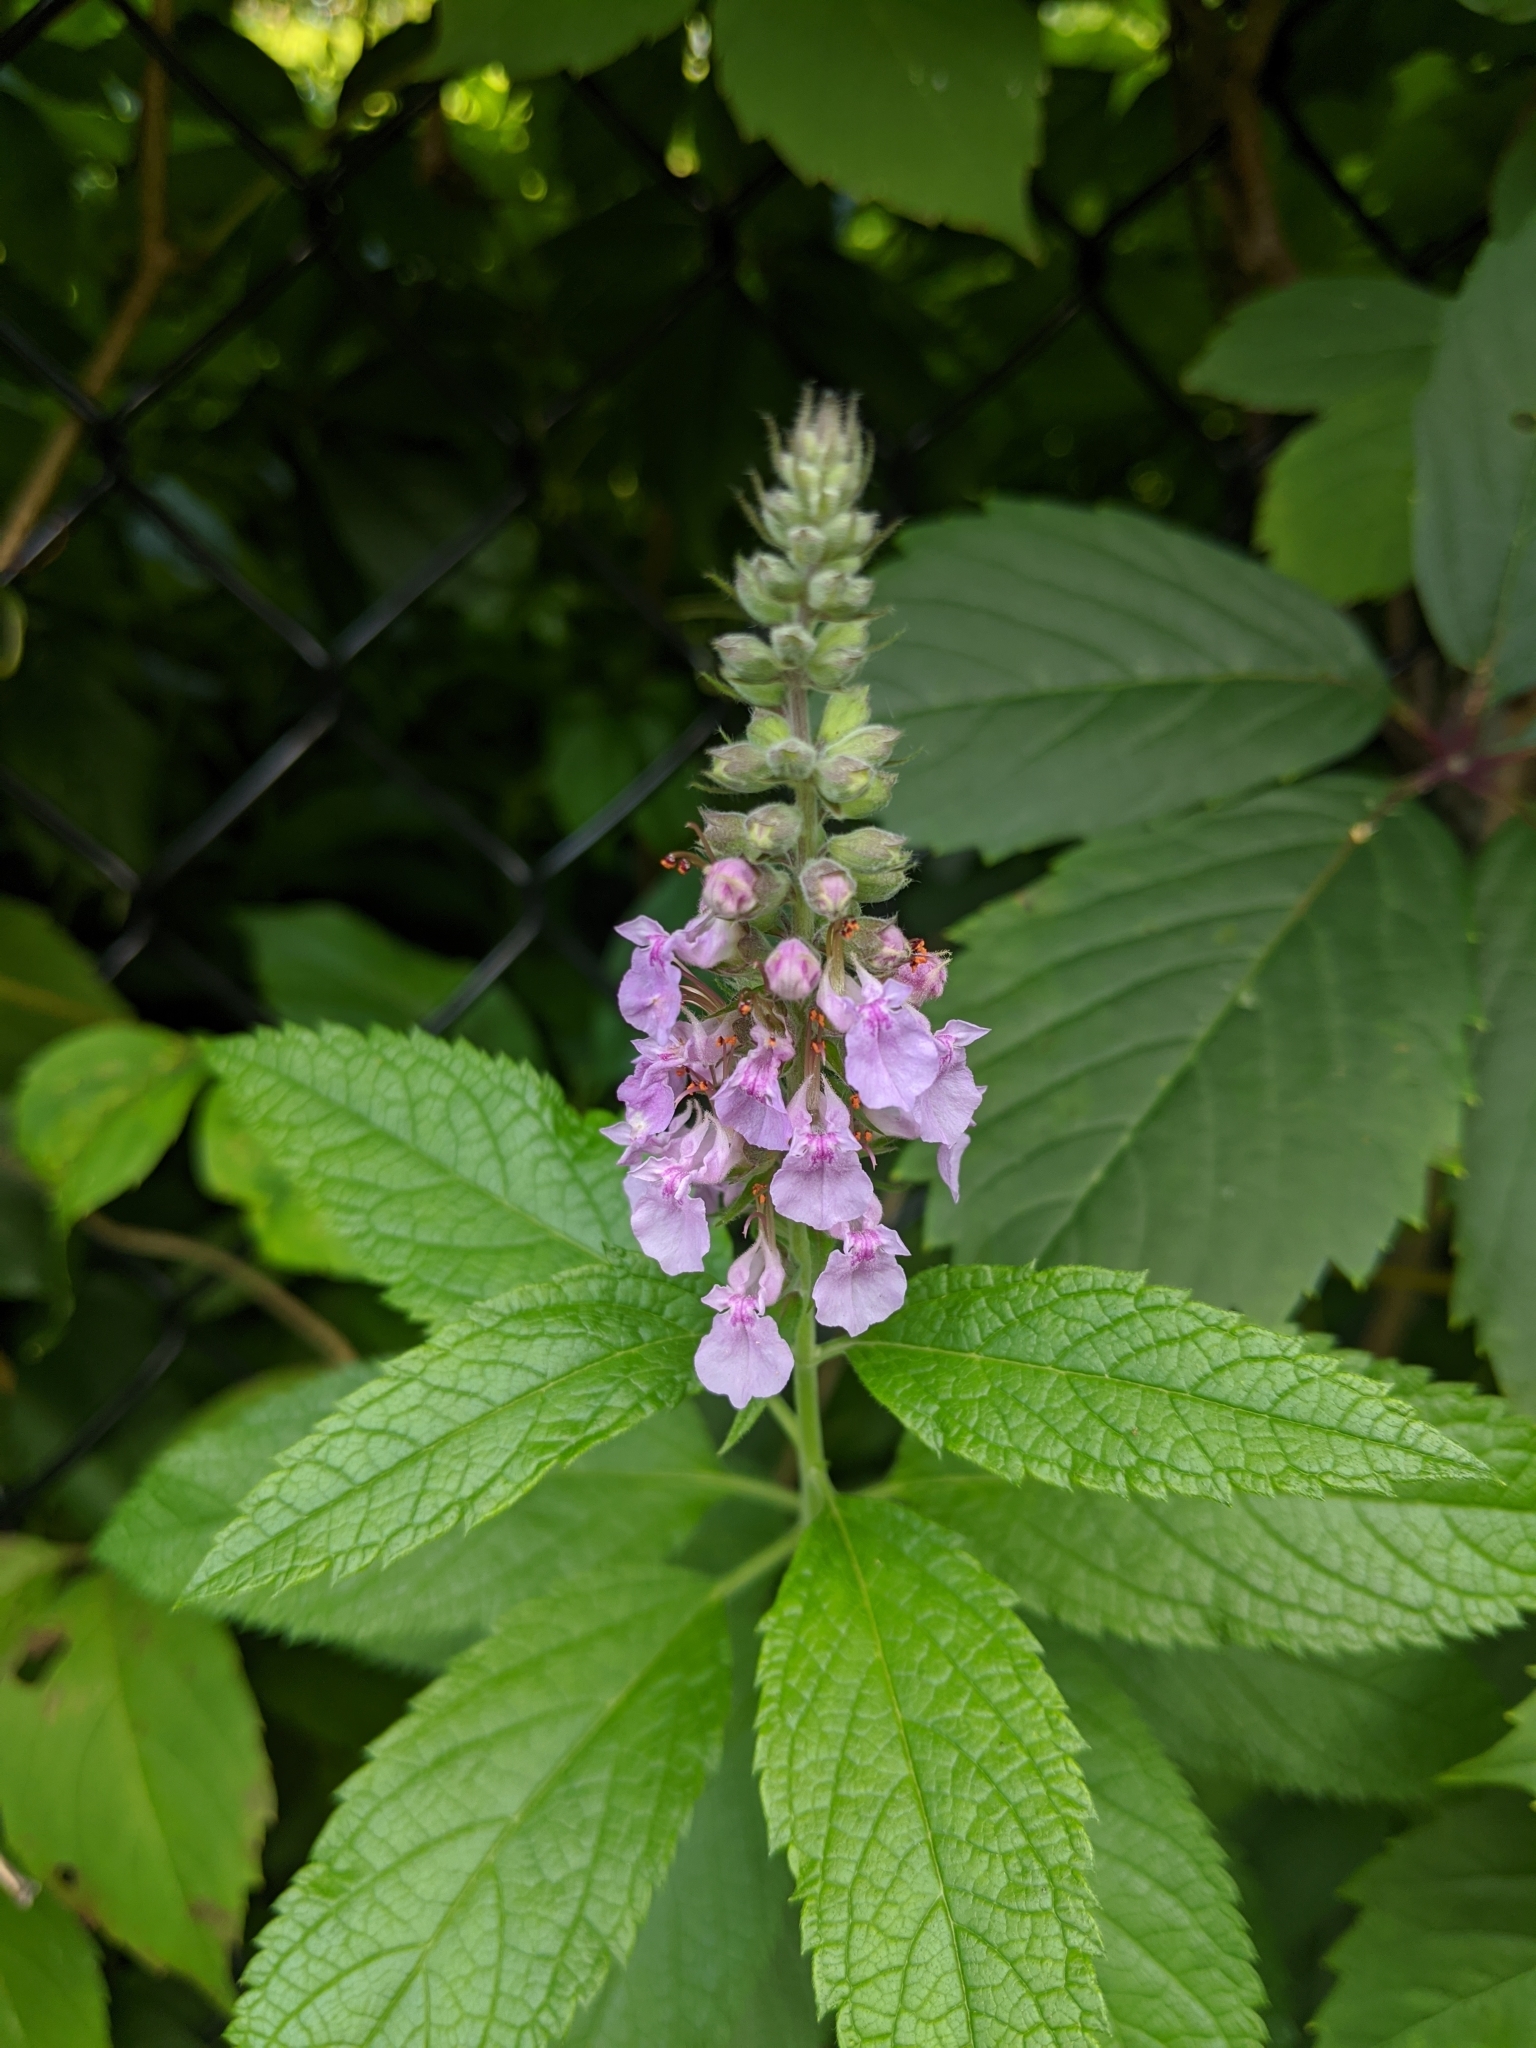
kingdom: Plantae
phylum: Tracheophyta
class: Magnoliopsida
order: Lamiales
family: Lamiaceae
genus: Teucrium
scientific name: Teucrium canadense
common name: American germander
